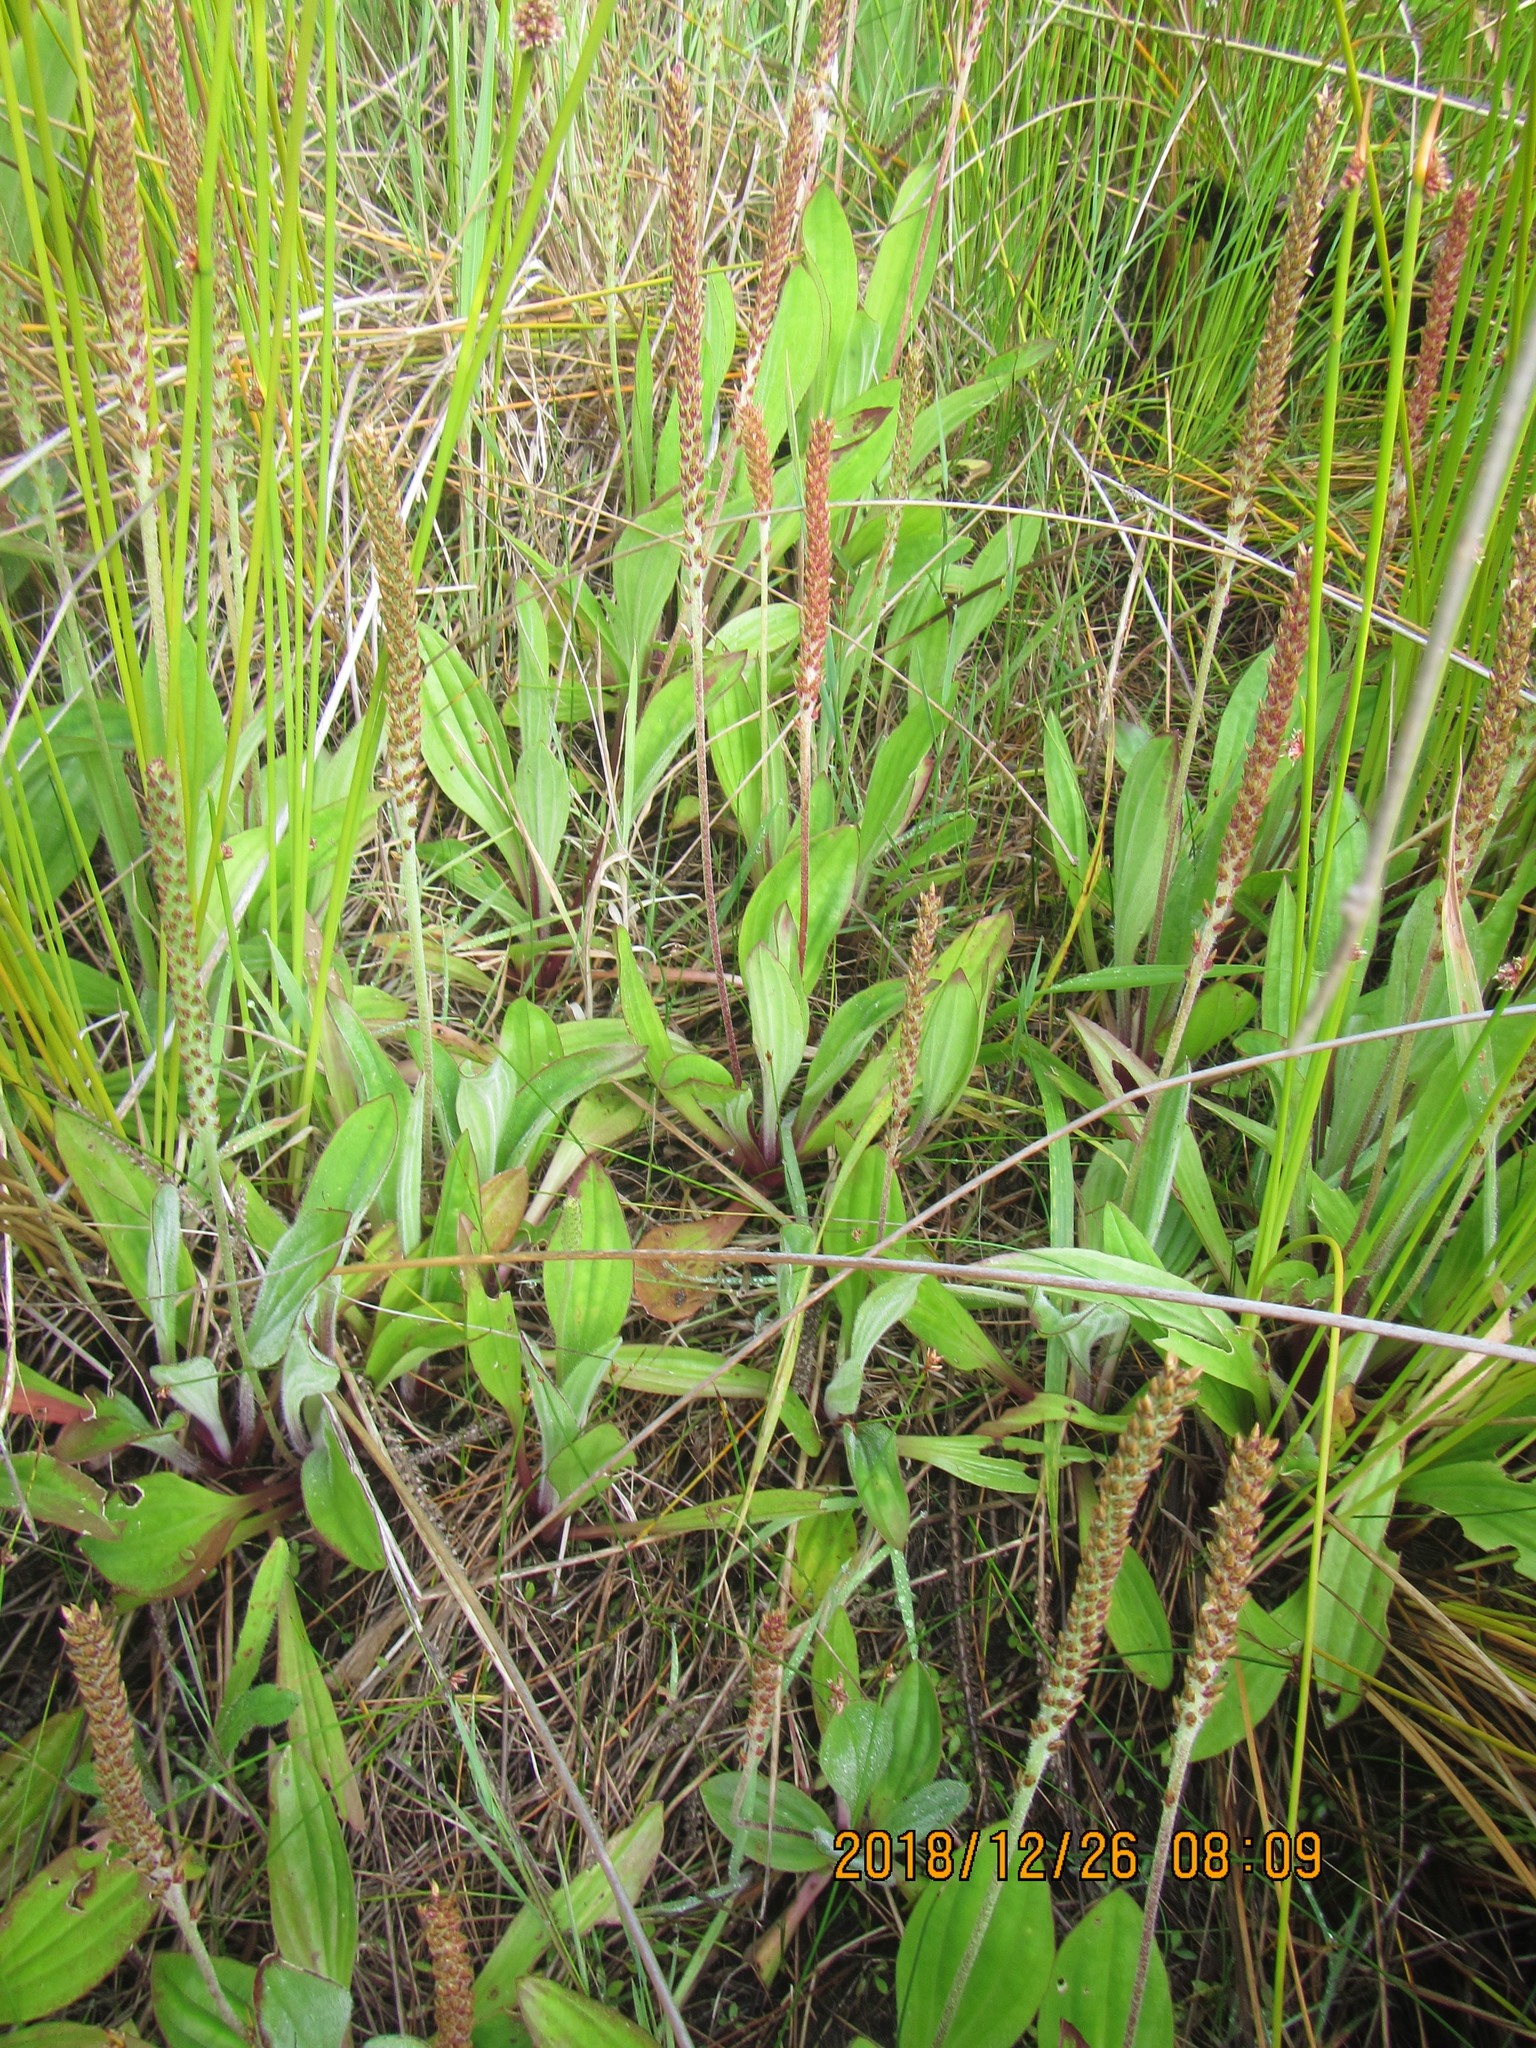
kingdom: Plantae
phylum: Tracheophyta
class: Magnoliopsida
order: Lamiales
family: Plantaginaceae
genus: Plantago
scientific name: Plantago australis
